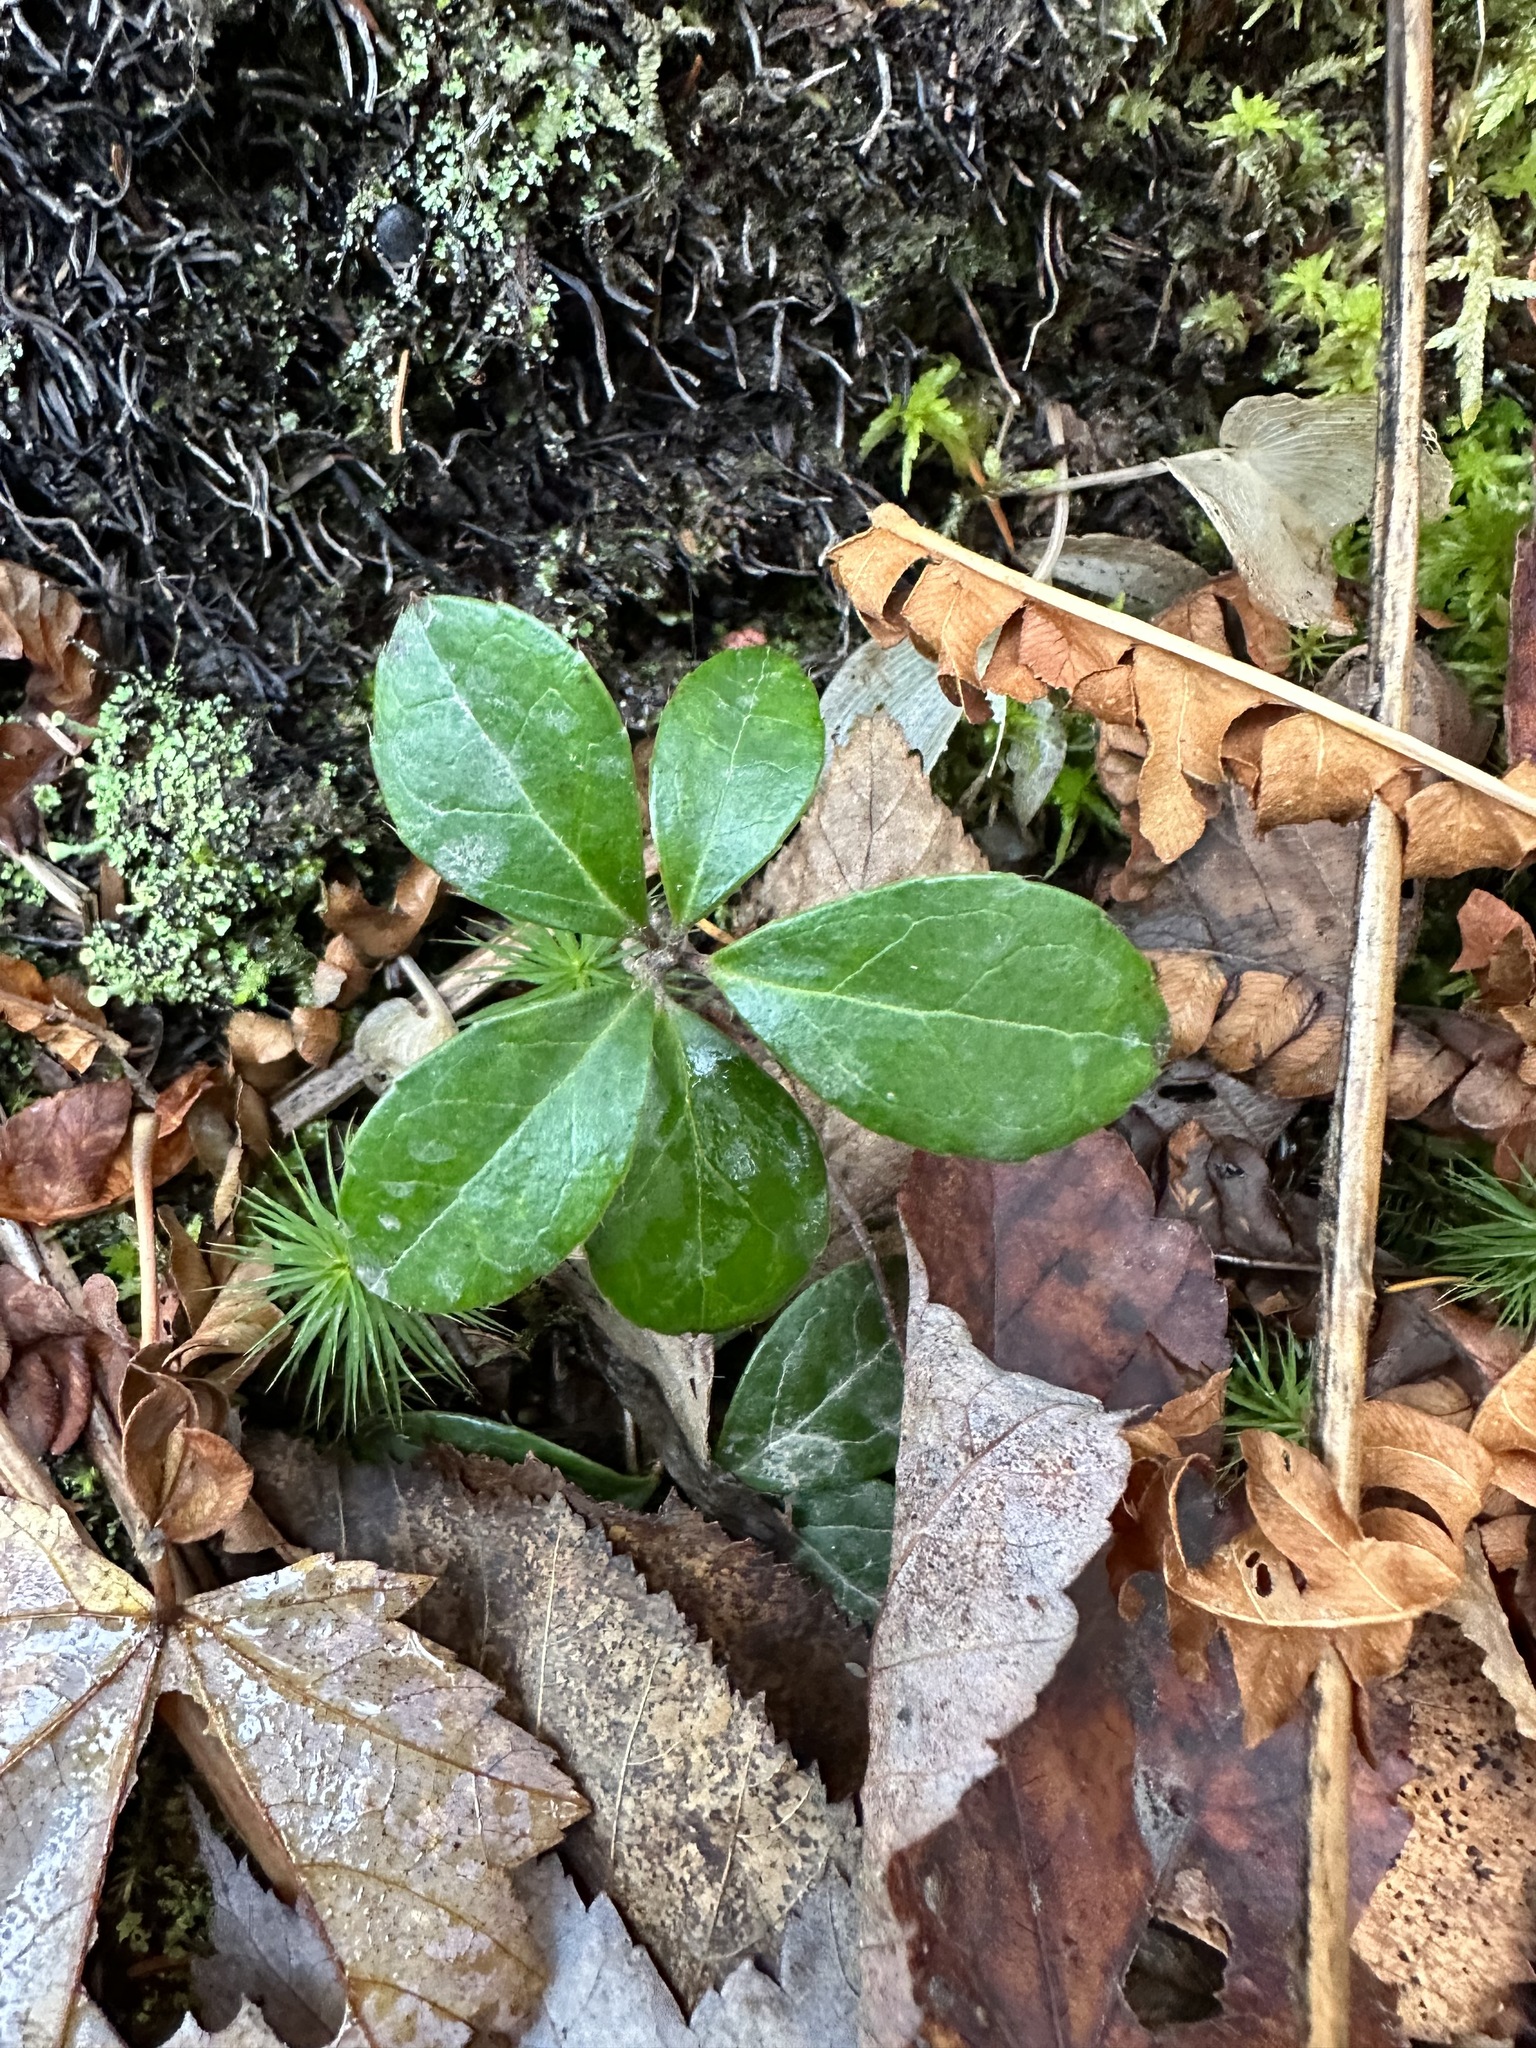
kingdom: Plantae
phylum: Tracheophyta
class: Magnoliopsida
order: Ericales
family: Ericaceae
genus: Gaultheria
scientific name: Gaultheria procumbens
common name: Checkerberry
